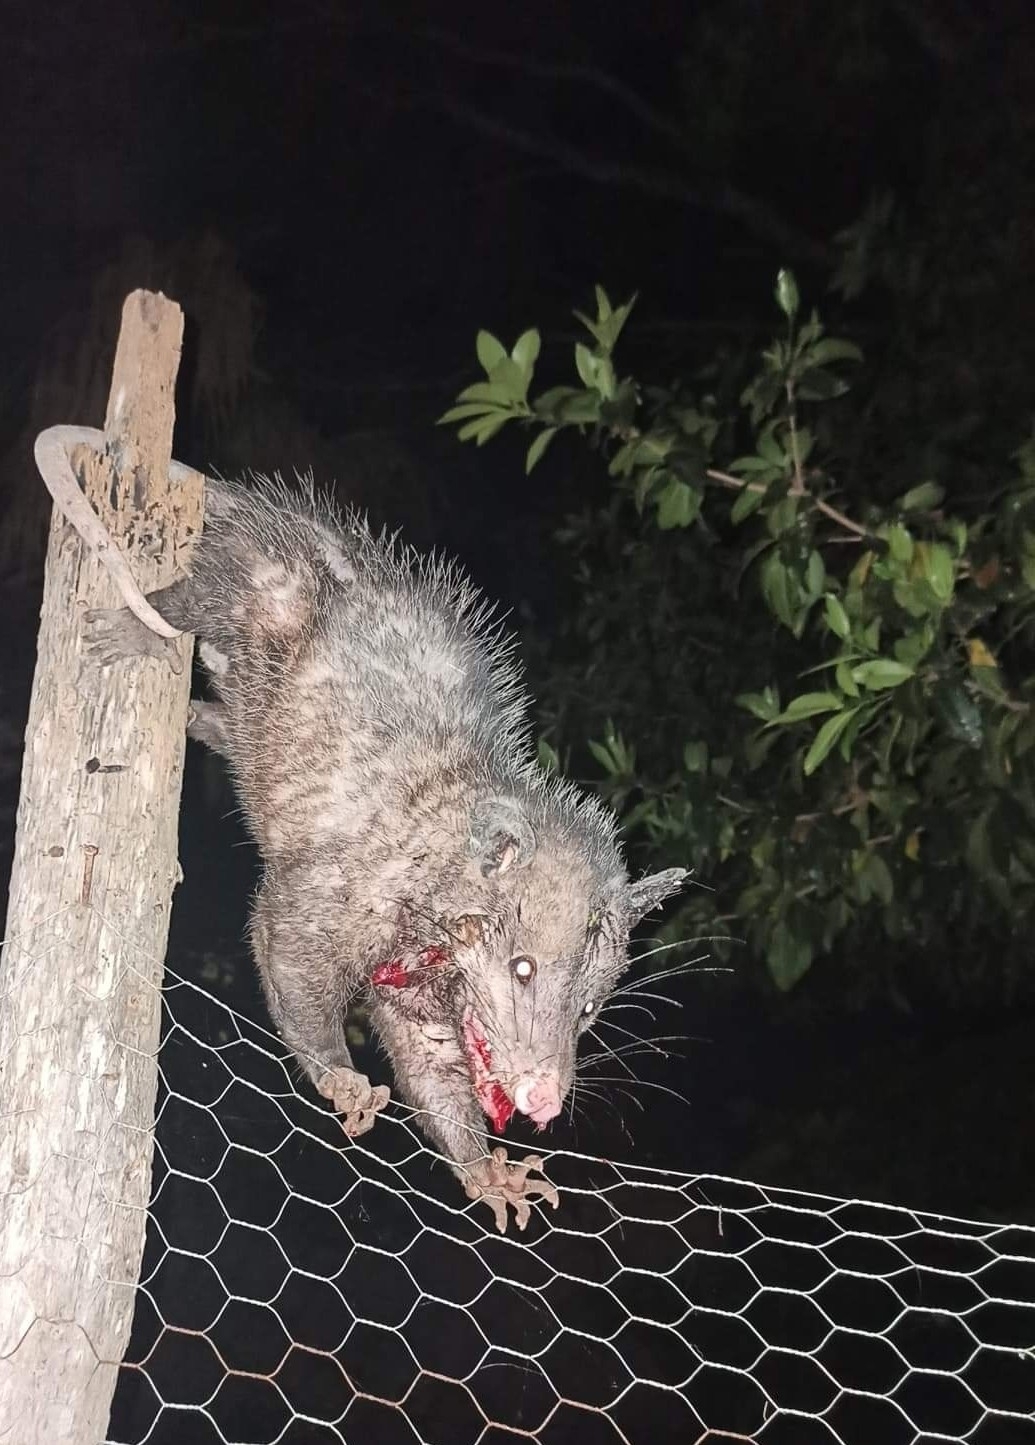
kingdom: Animalia
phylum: Chordata
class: Mammalia
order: Didelphimorphia
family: Didelphidae
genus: Didelphis
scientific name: Didelphis
